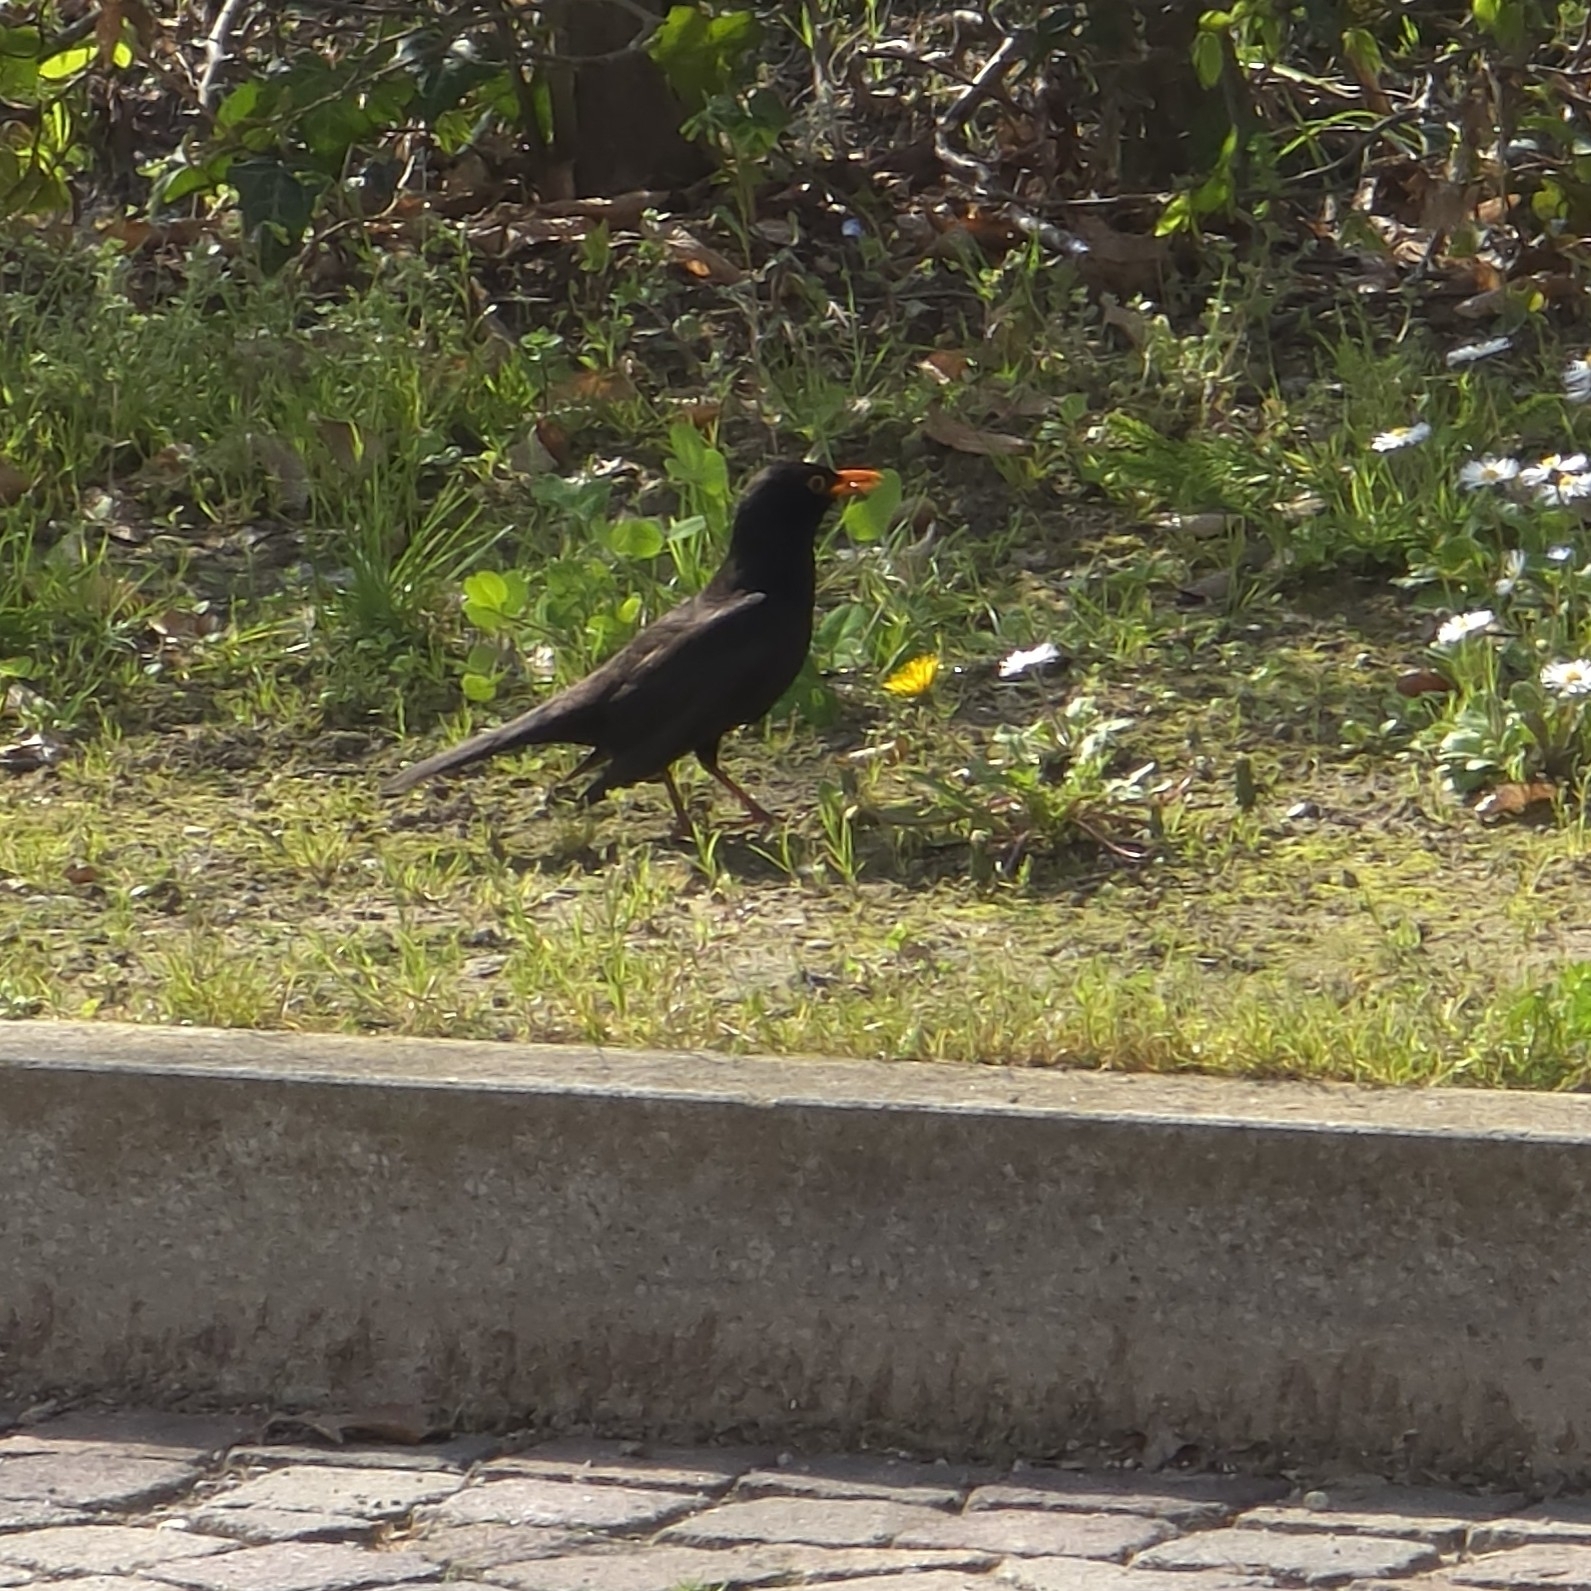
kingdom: Animalia
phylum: Chordata
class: Aves
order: Passeriformes
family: Turdidae
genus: Turdus
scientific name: Turdus merula
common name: Common blackbird
